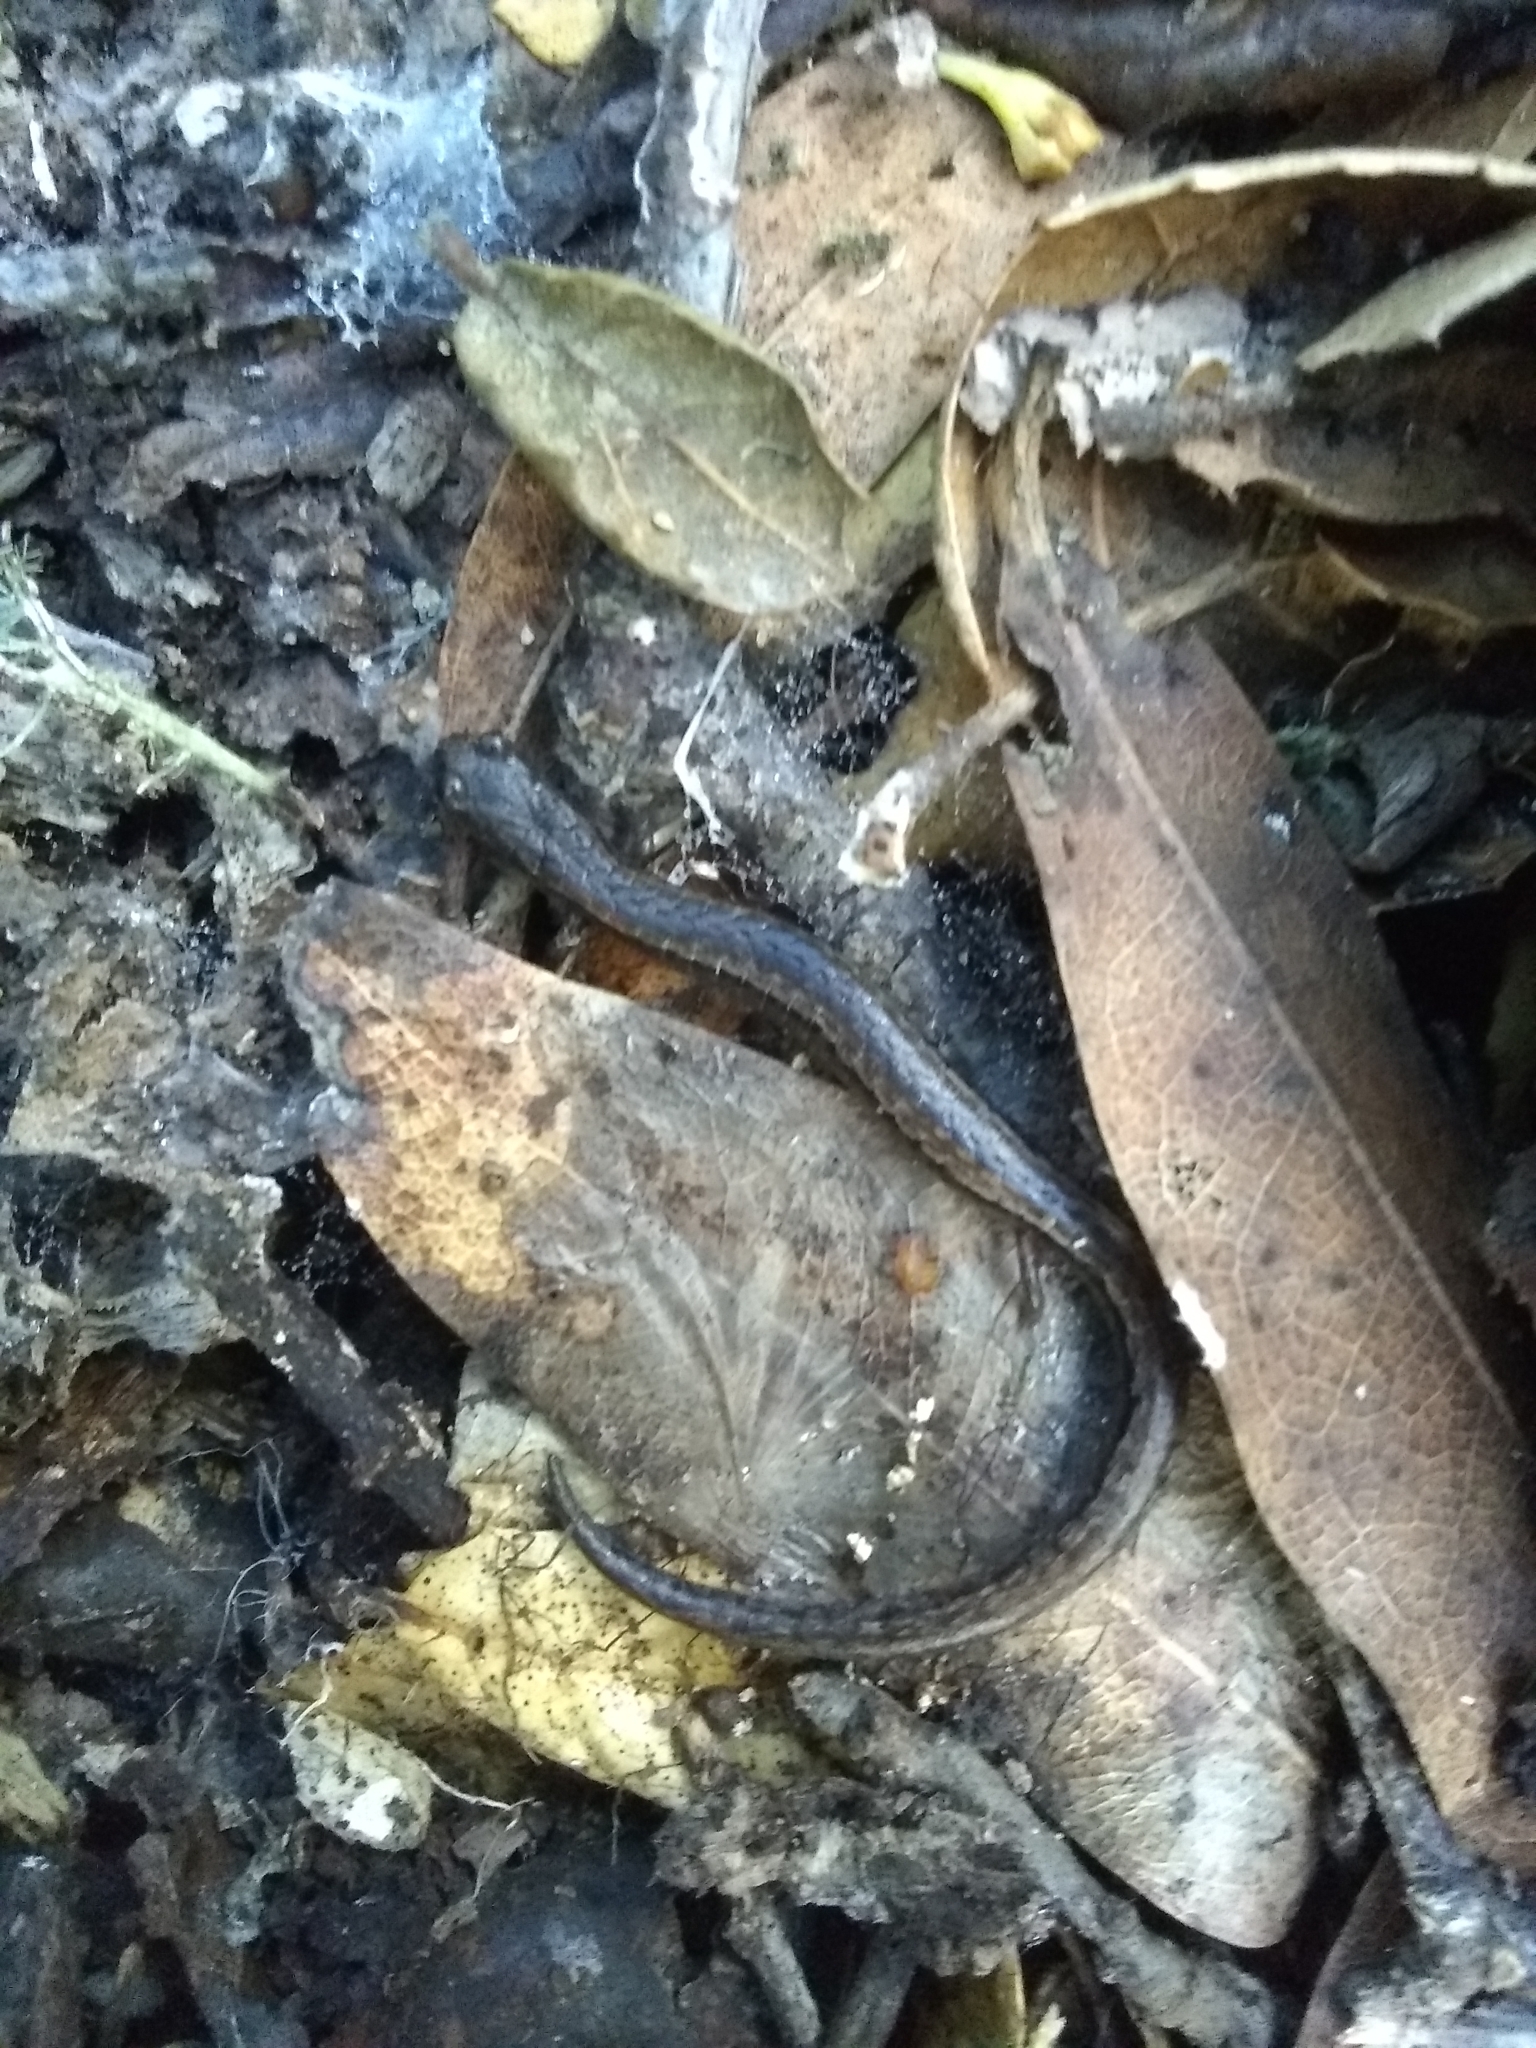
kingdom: Animalia
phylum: Chordata
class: Amphibia
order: Caudata
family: Plethodontidae
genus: Batrachoseps
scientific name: Batrachoseps attenuatus
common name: California slender salamander
